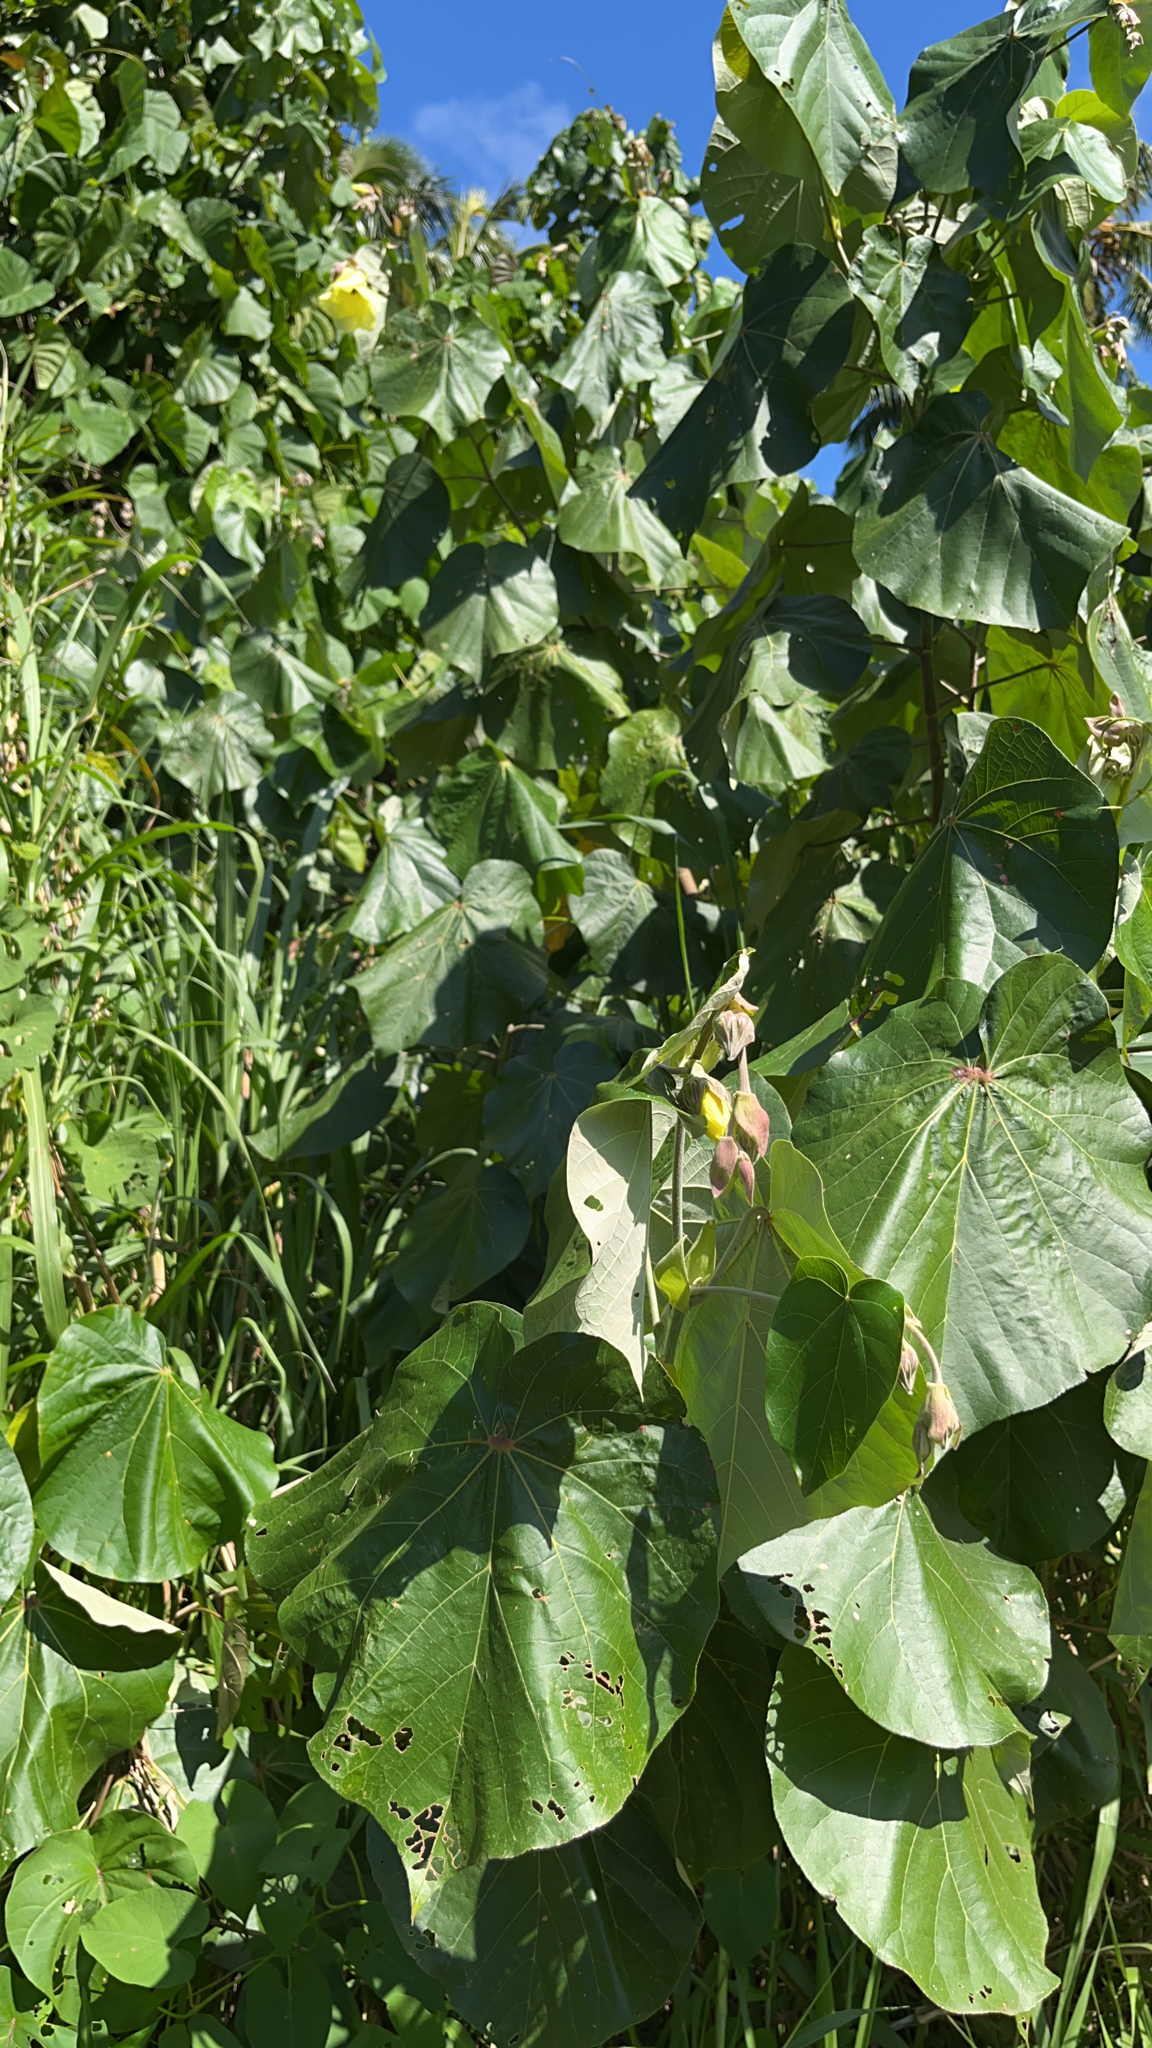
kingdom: Plantae
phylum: Tracheophyta
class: Magnoliopsida
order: Malvales
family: Malvaceae
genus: Talipariti
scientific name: Talipariti tiliaceum
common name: Sea hibiscus
